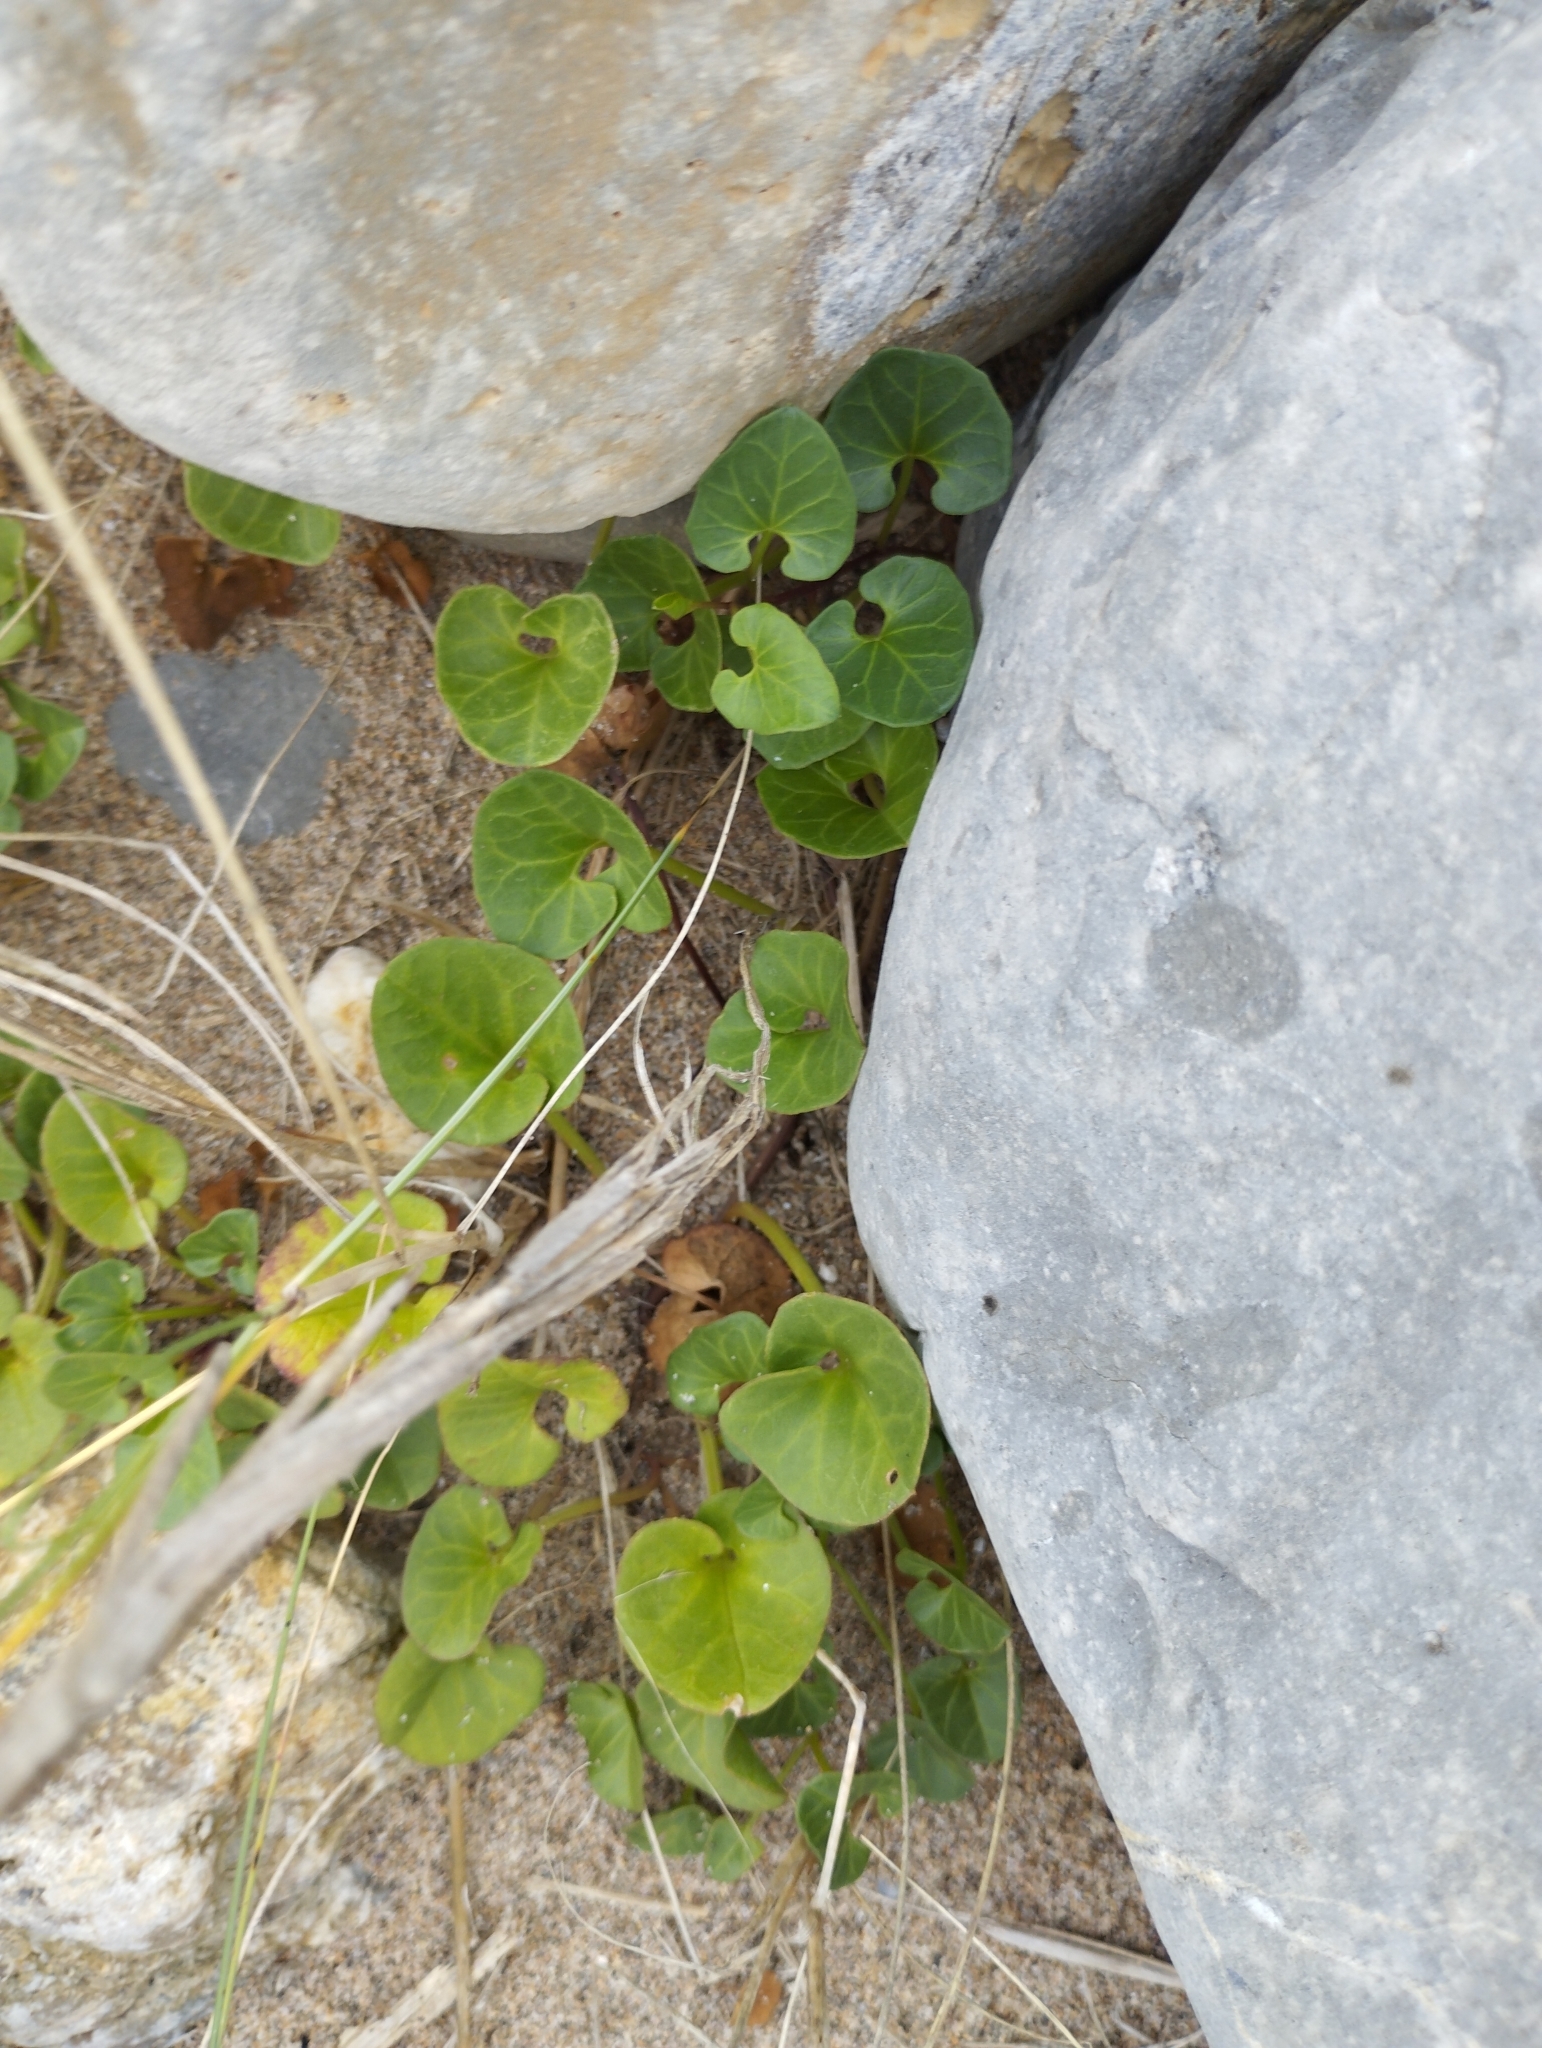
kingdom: Plantae
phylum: Tracheophyta
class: Magnoliopsida
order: Solanales
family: Convolvulaceae
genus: Calystegia
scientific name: Calystegia soldanella
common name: Sea bindweed
